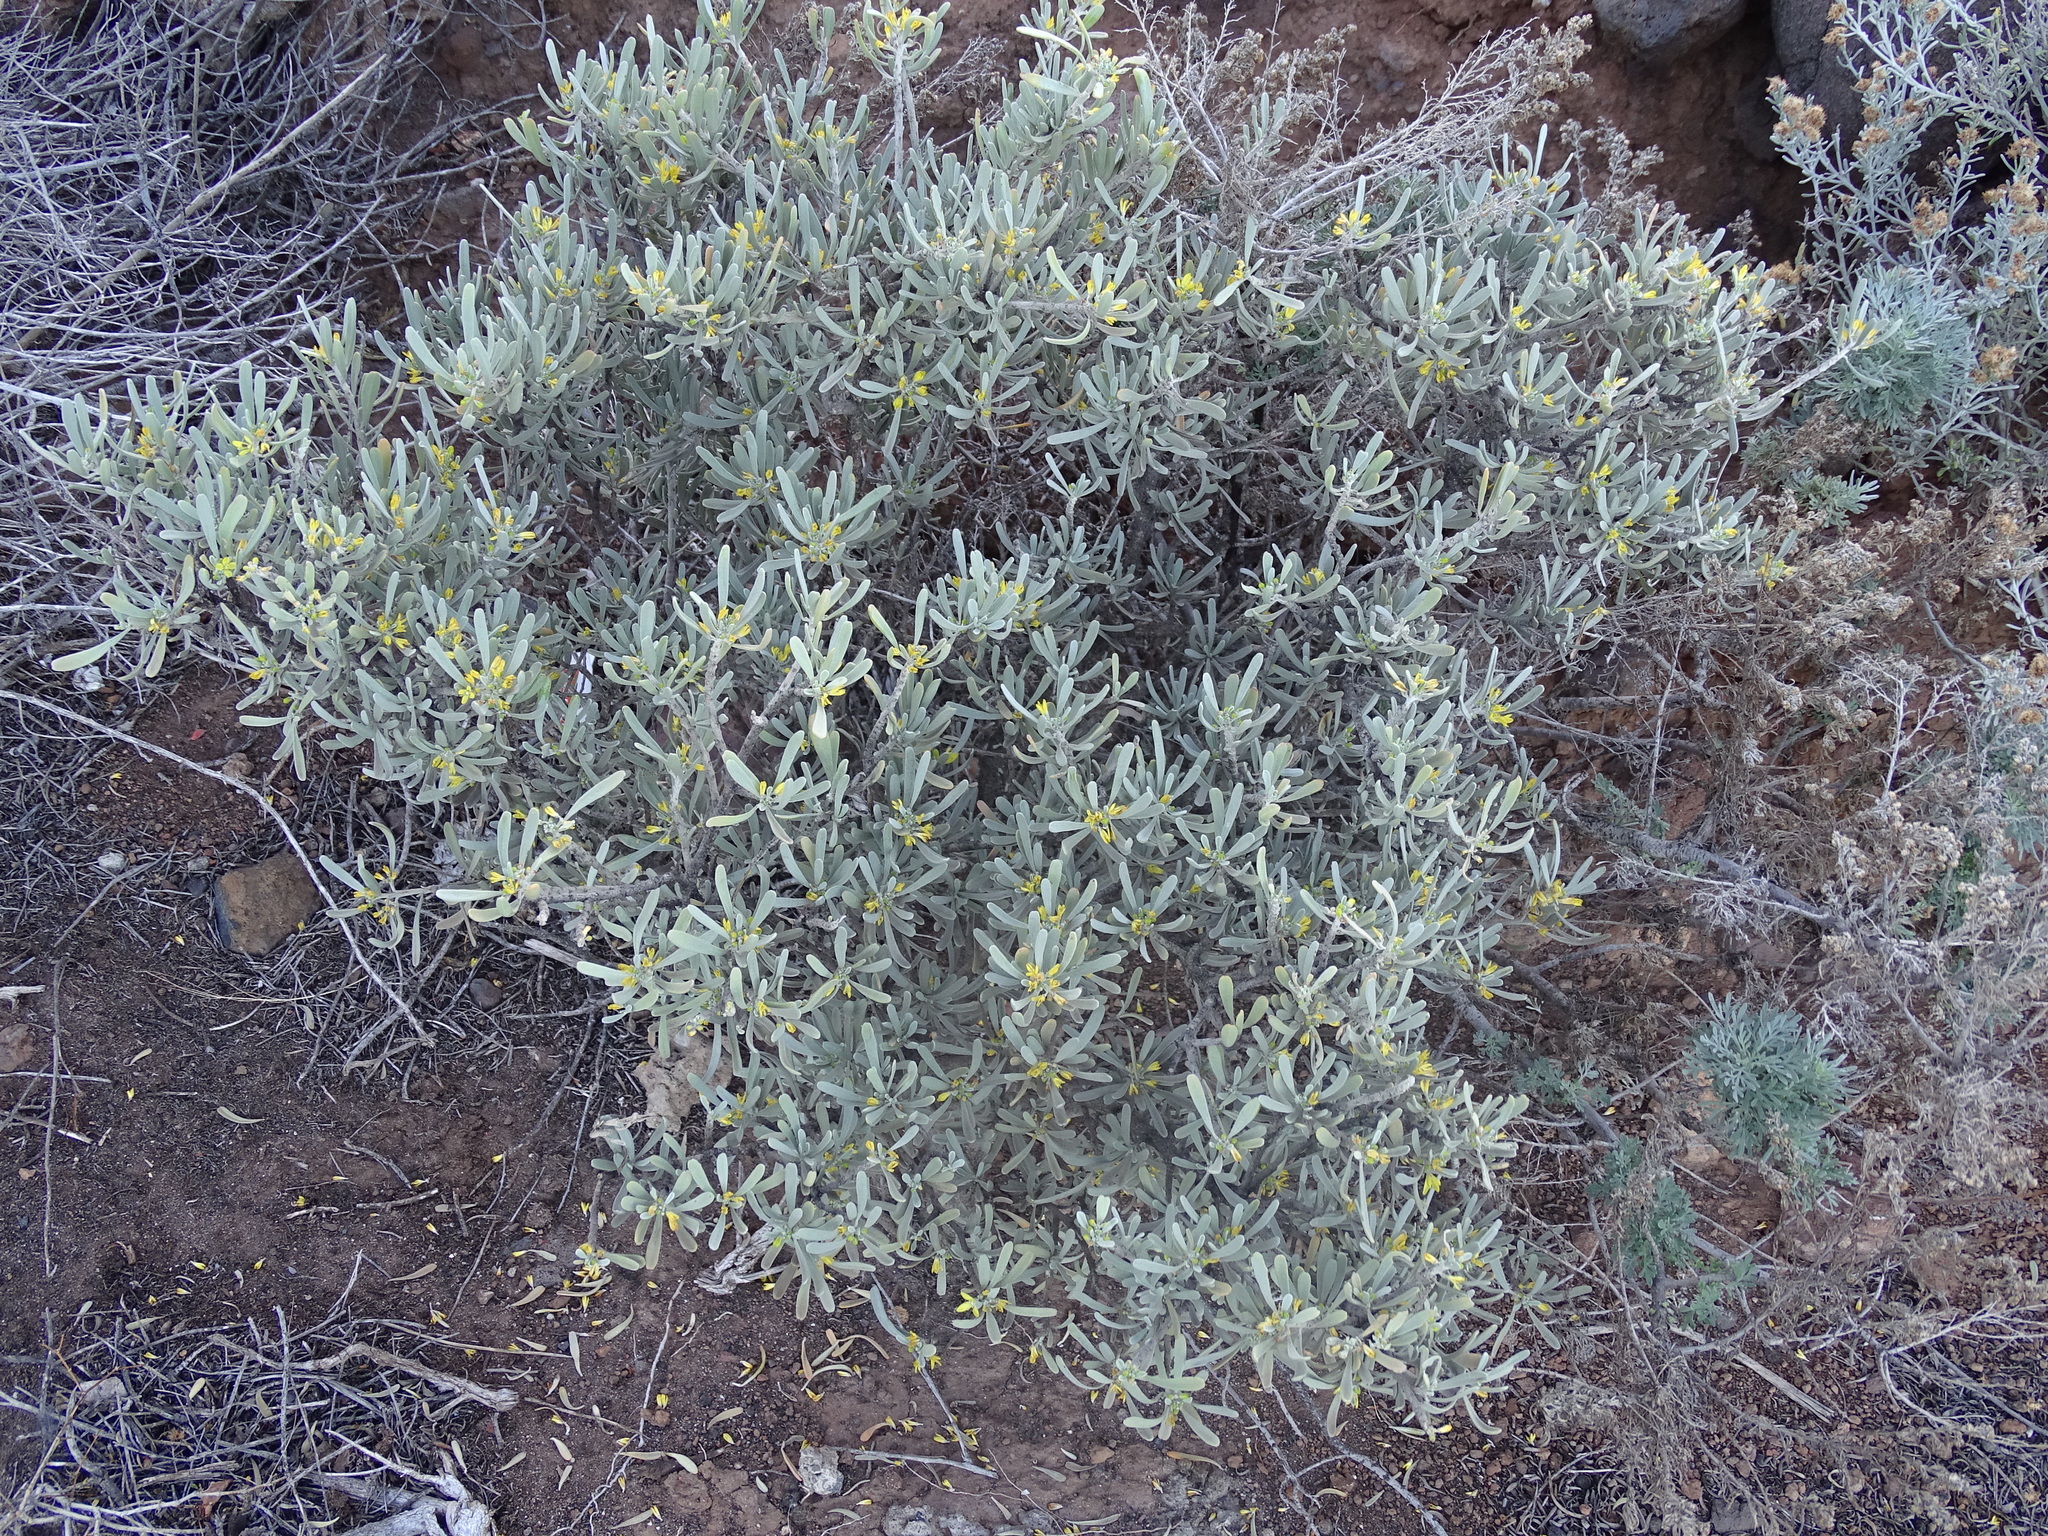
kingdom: Plantae
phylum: Tracheophyta
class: Magnoliopsida
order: Sapindales
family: Rutaceae
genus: Cneorum
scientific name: Cneorum pulverulentum
